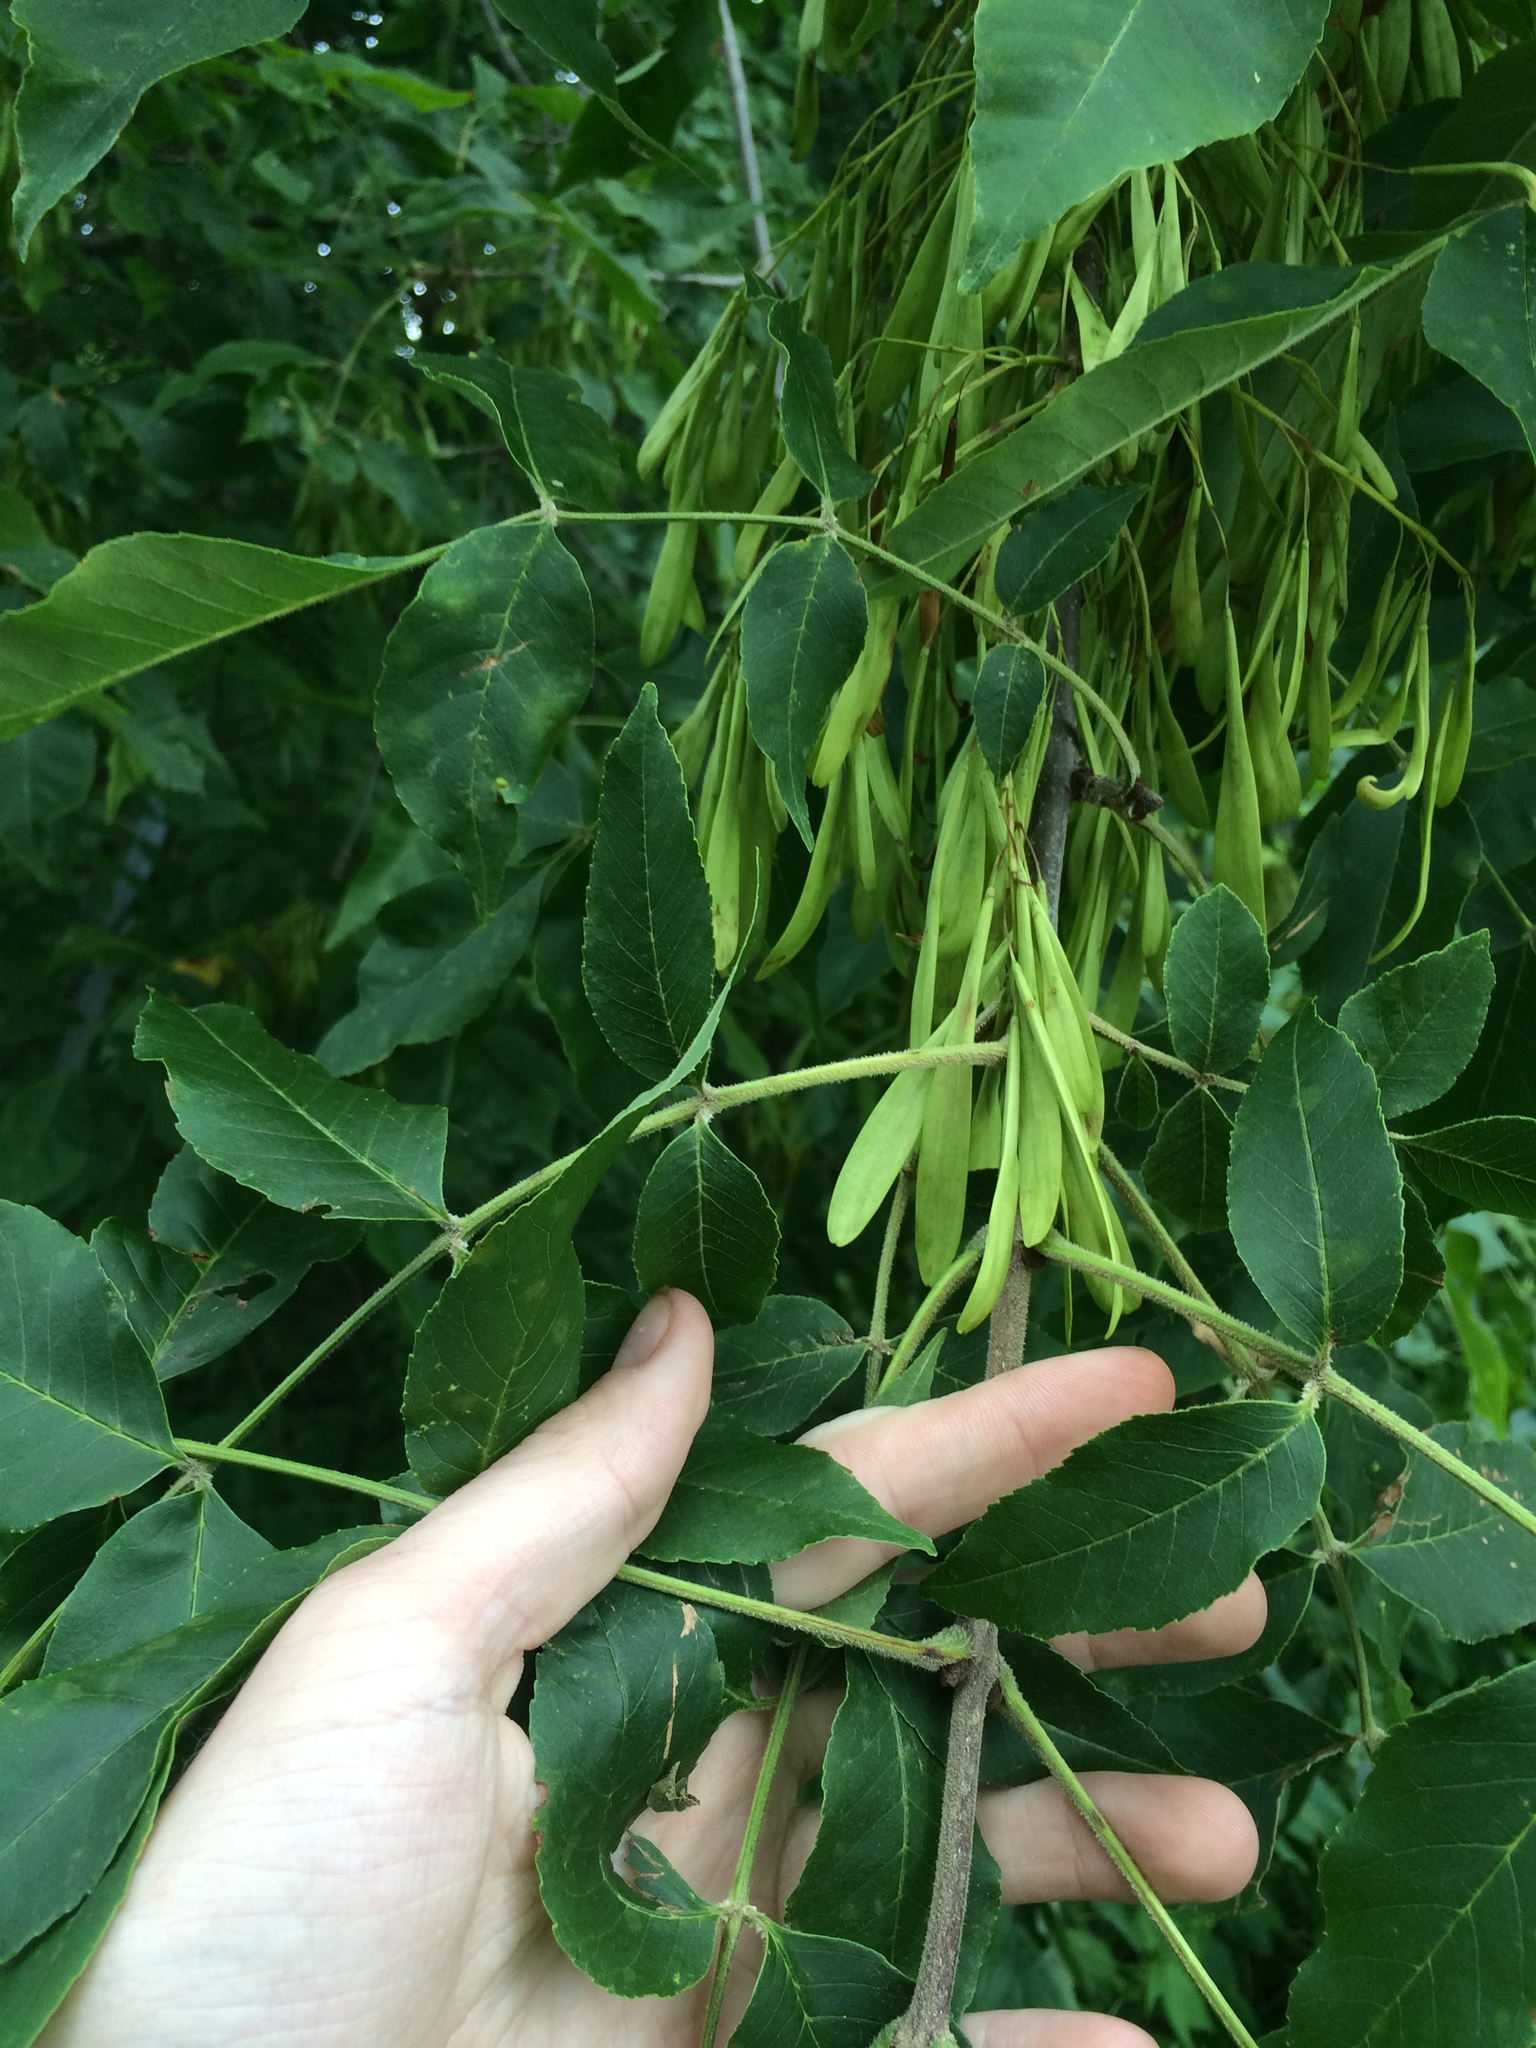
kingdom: Plantae
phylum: Tracheophyta
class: Magnoliopsida
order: Lamiales
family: Oleaceae
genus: Fraxinus
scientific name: Fraxinus pennsylvanica
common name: Green ash
